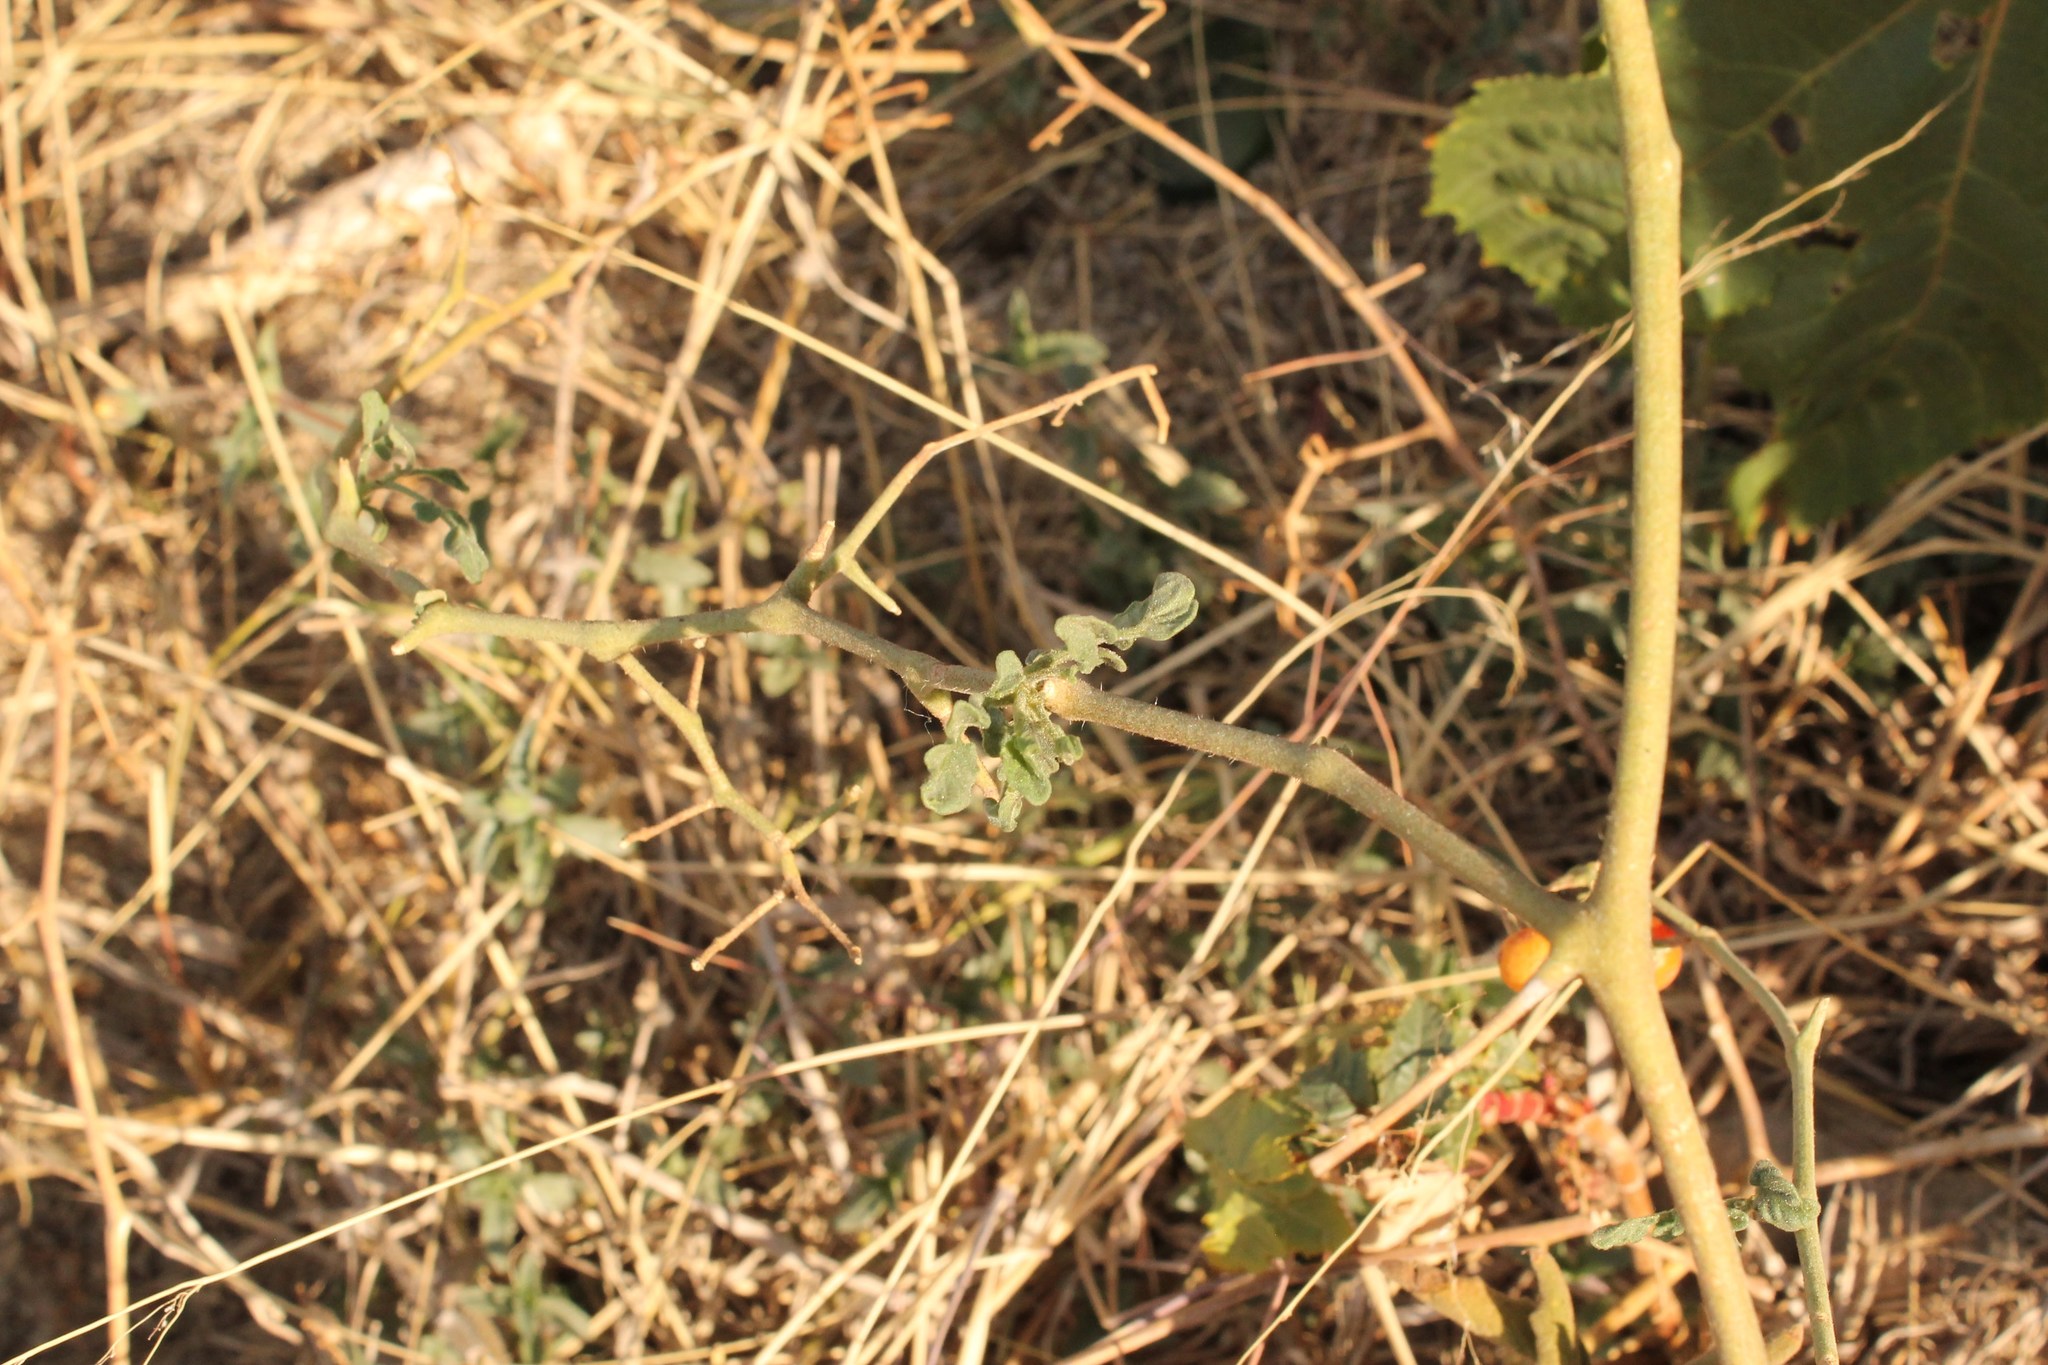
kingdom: Plantae
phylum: Tracheophyta
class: Magnoliopsida
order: Solanales
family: Solanaceae
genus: Solanum
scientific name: Solanum lycopersicum
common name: Garden tomato
